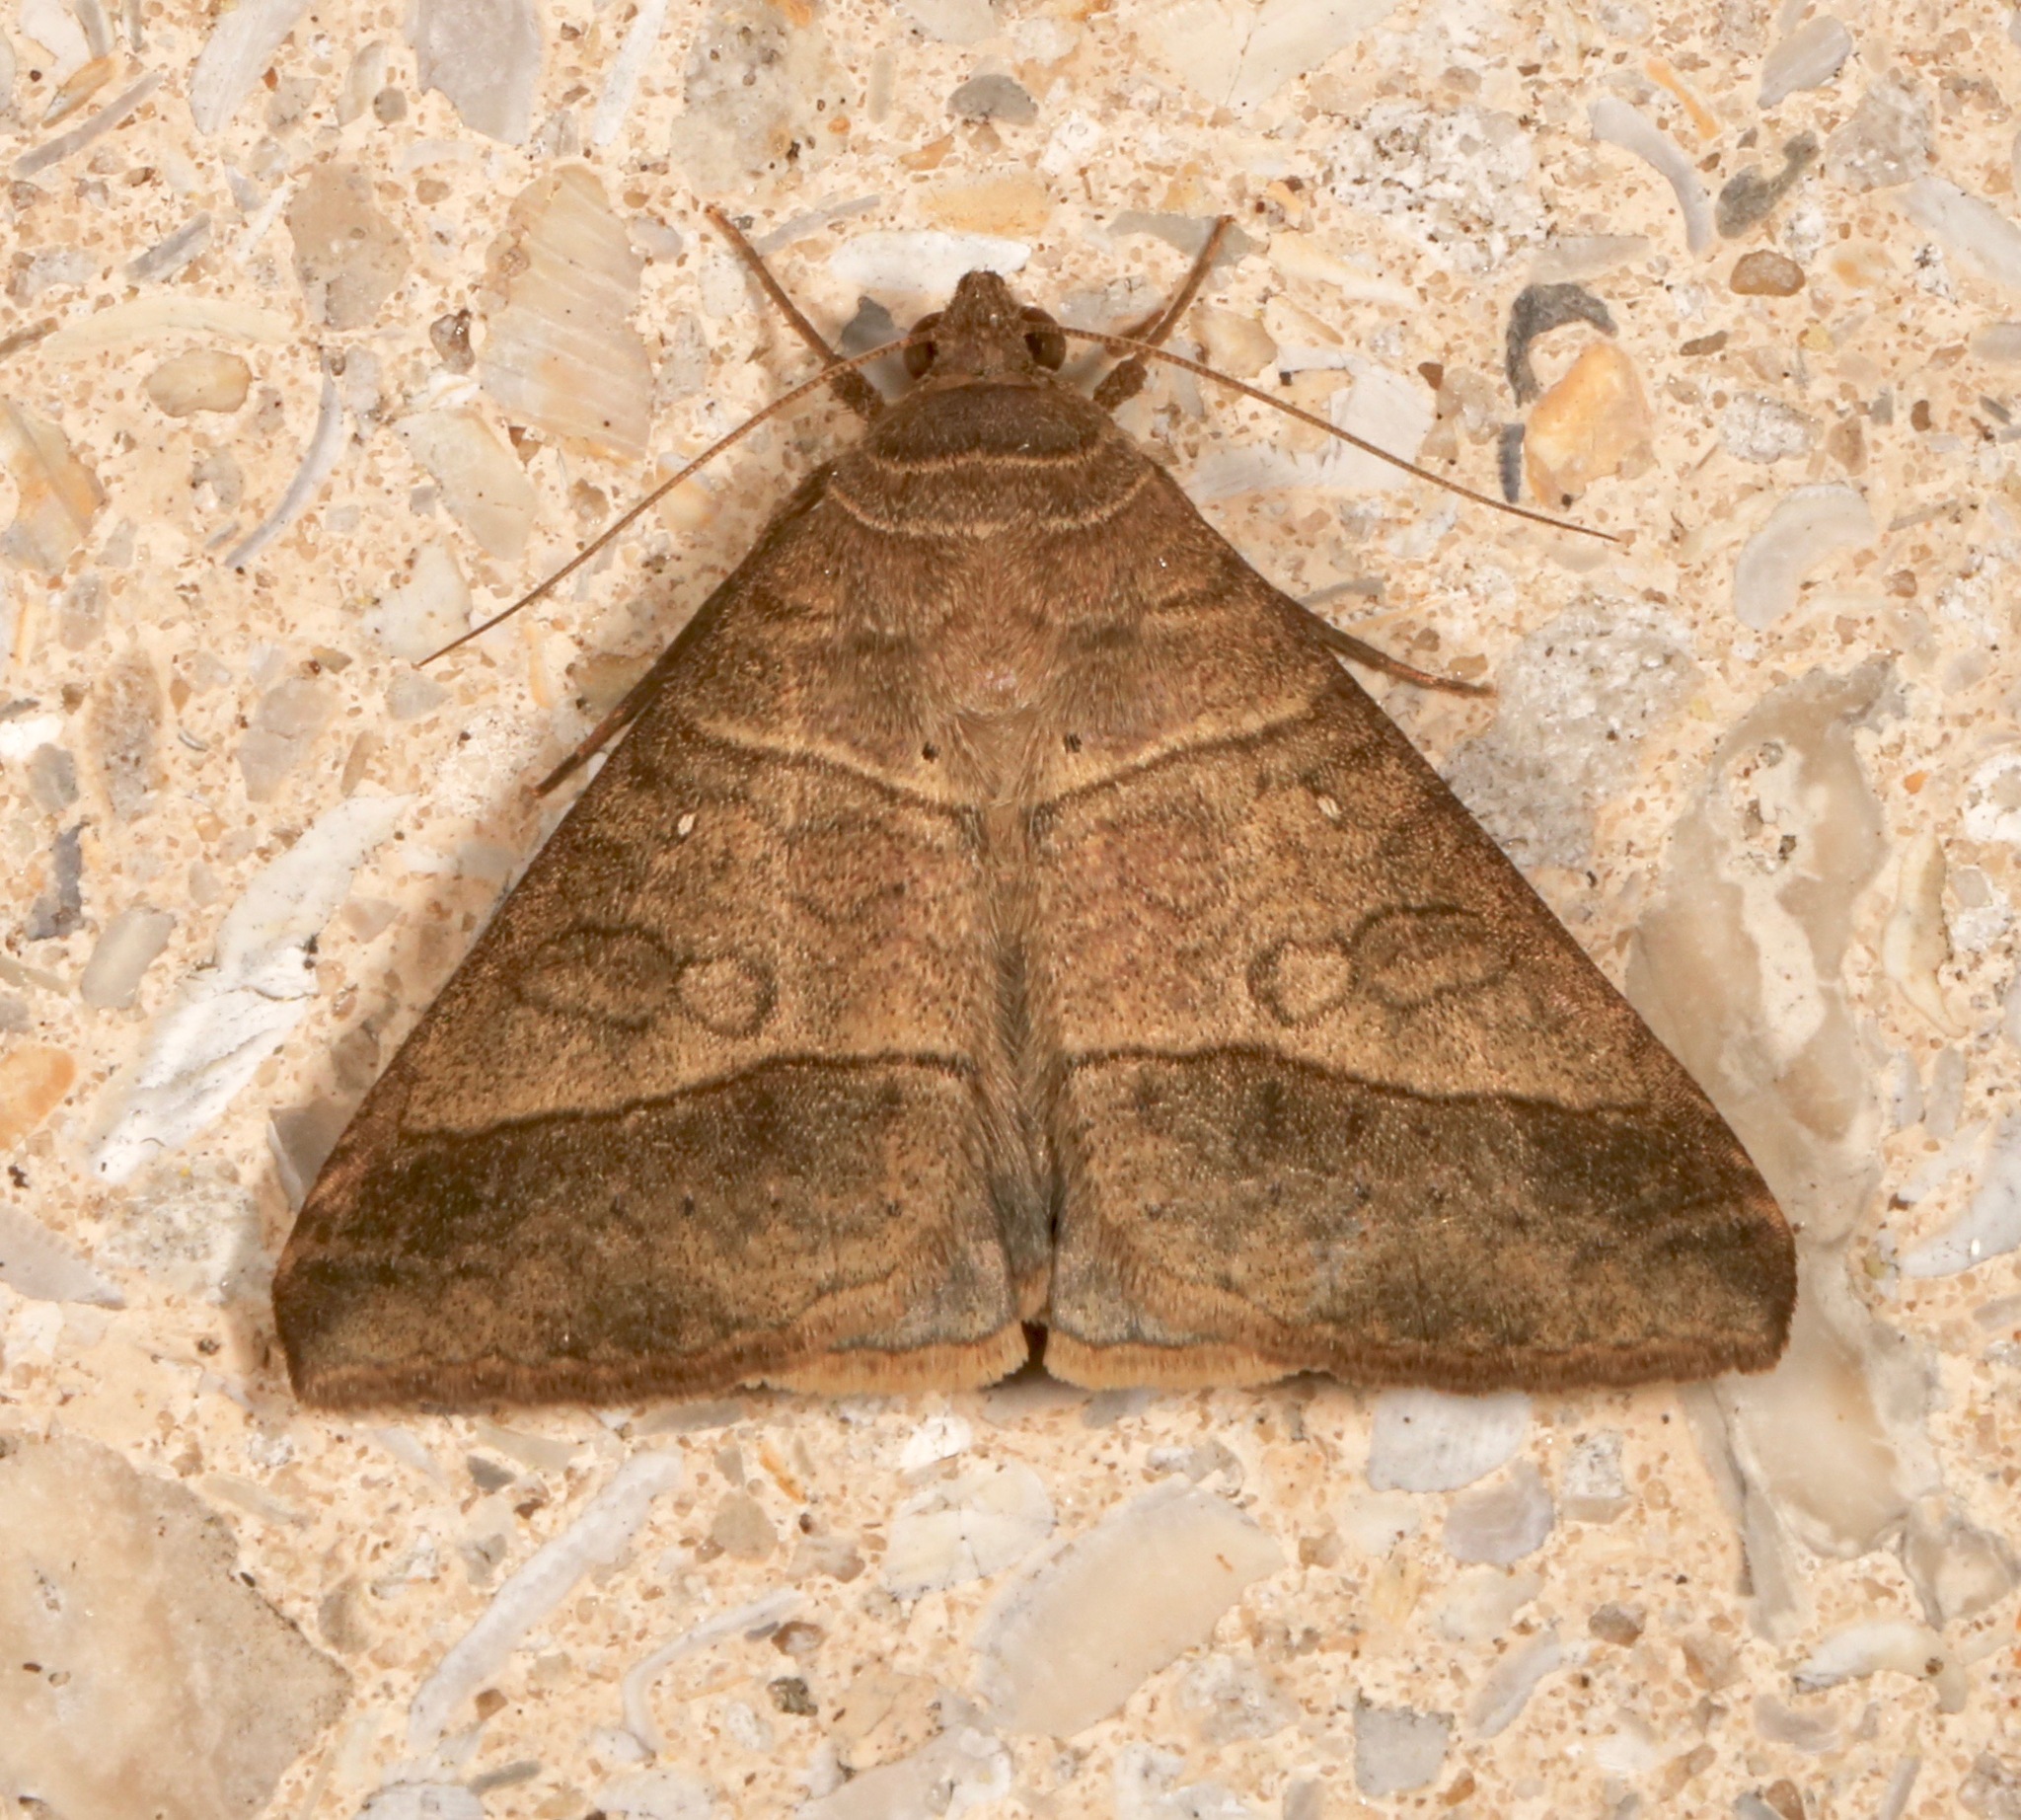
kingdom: Animalia
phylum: Arthropoda
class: Insecta
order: Lepidoptera
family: Erebidae
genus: Mocis
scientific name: Mocis latipes
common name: Striped grass looper
